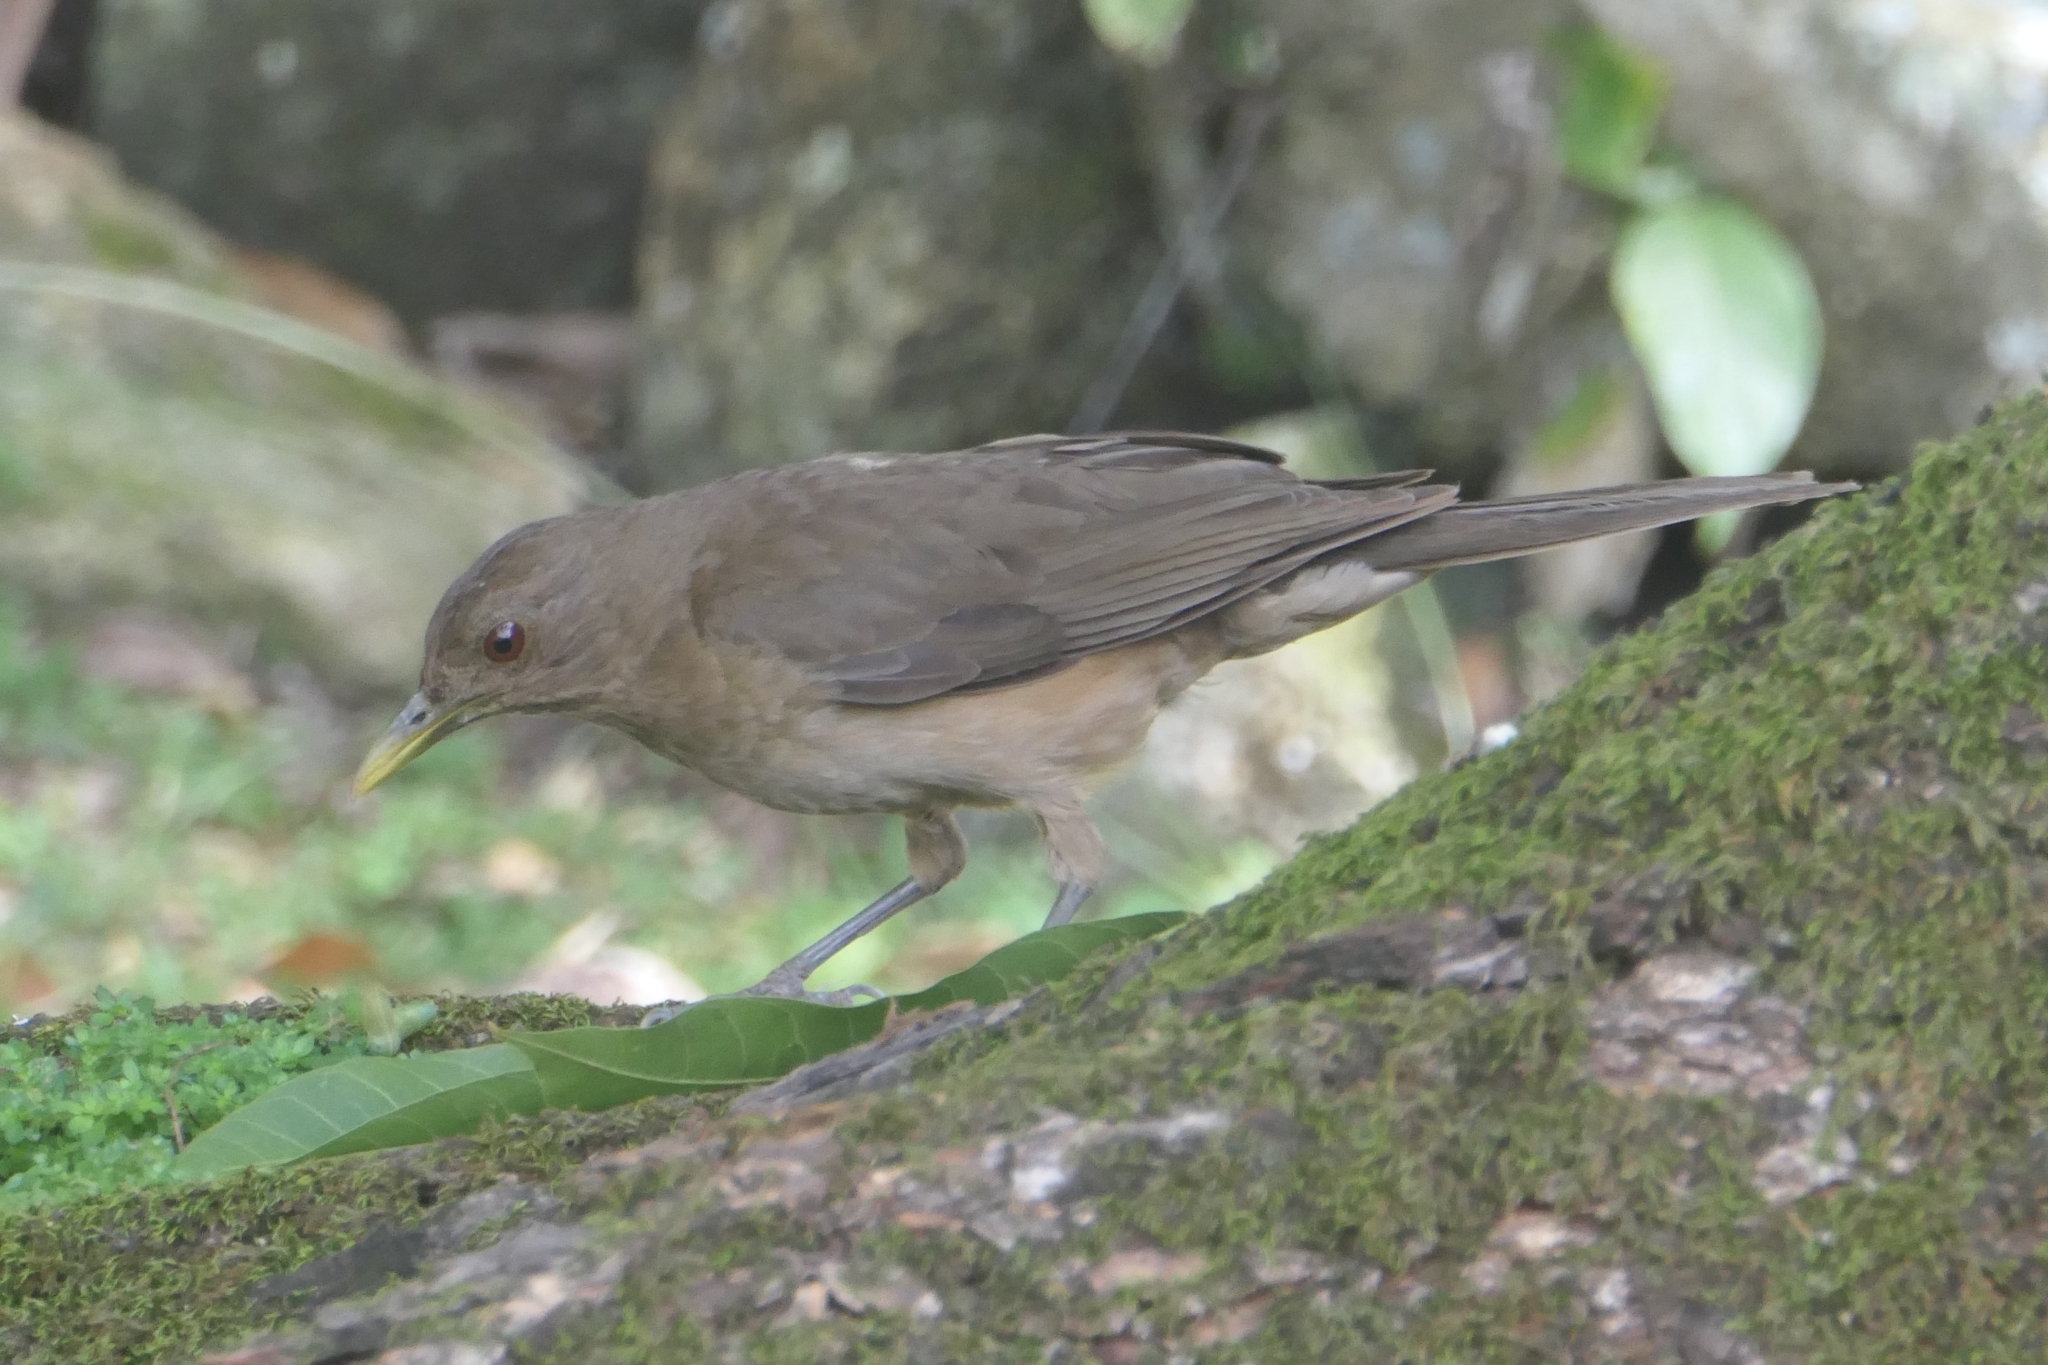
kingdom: Animalia
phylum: Chordata
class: Aves
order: Passeriformes
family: Turdidae
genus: Turdus
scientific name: Turdus grayi
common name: Clay-colored thrush
